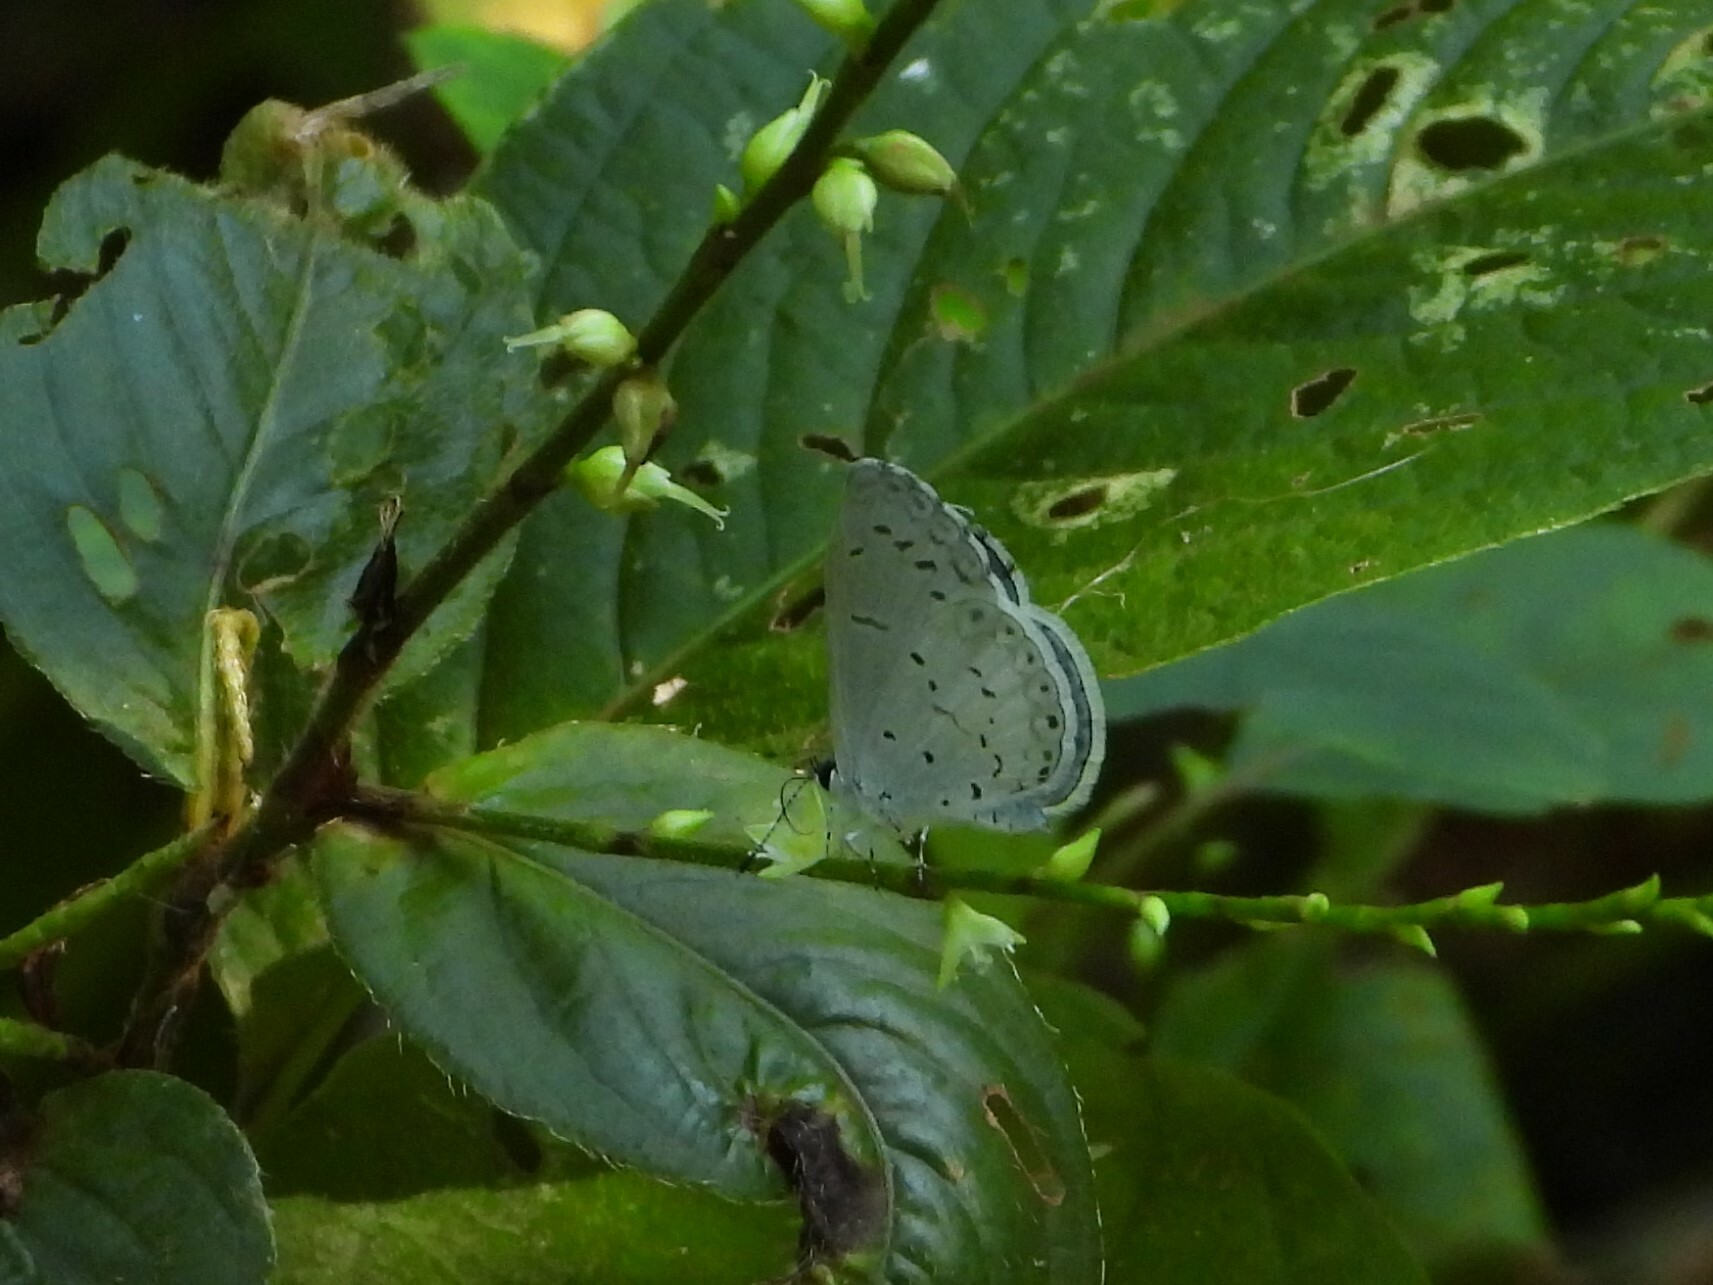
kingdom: Animalia
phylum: Arthropoda
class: Insecta
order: Lepidoptera
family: Lycaenidae
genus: Cyaniris
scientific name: Cyaniris neglecta
